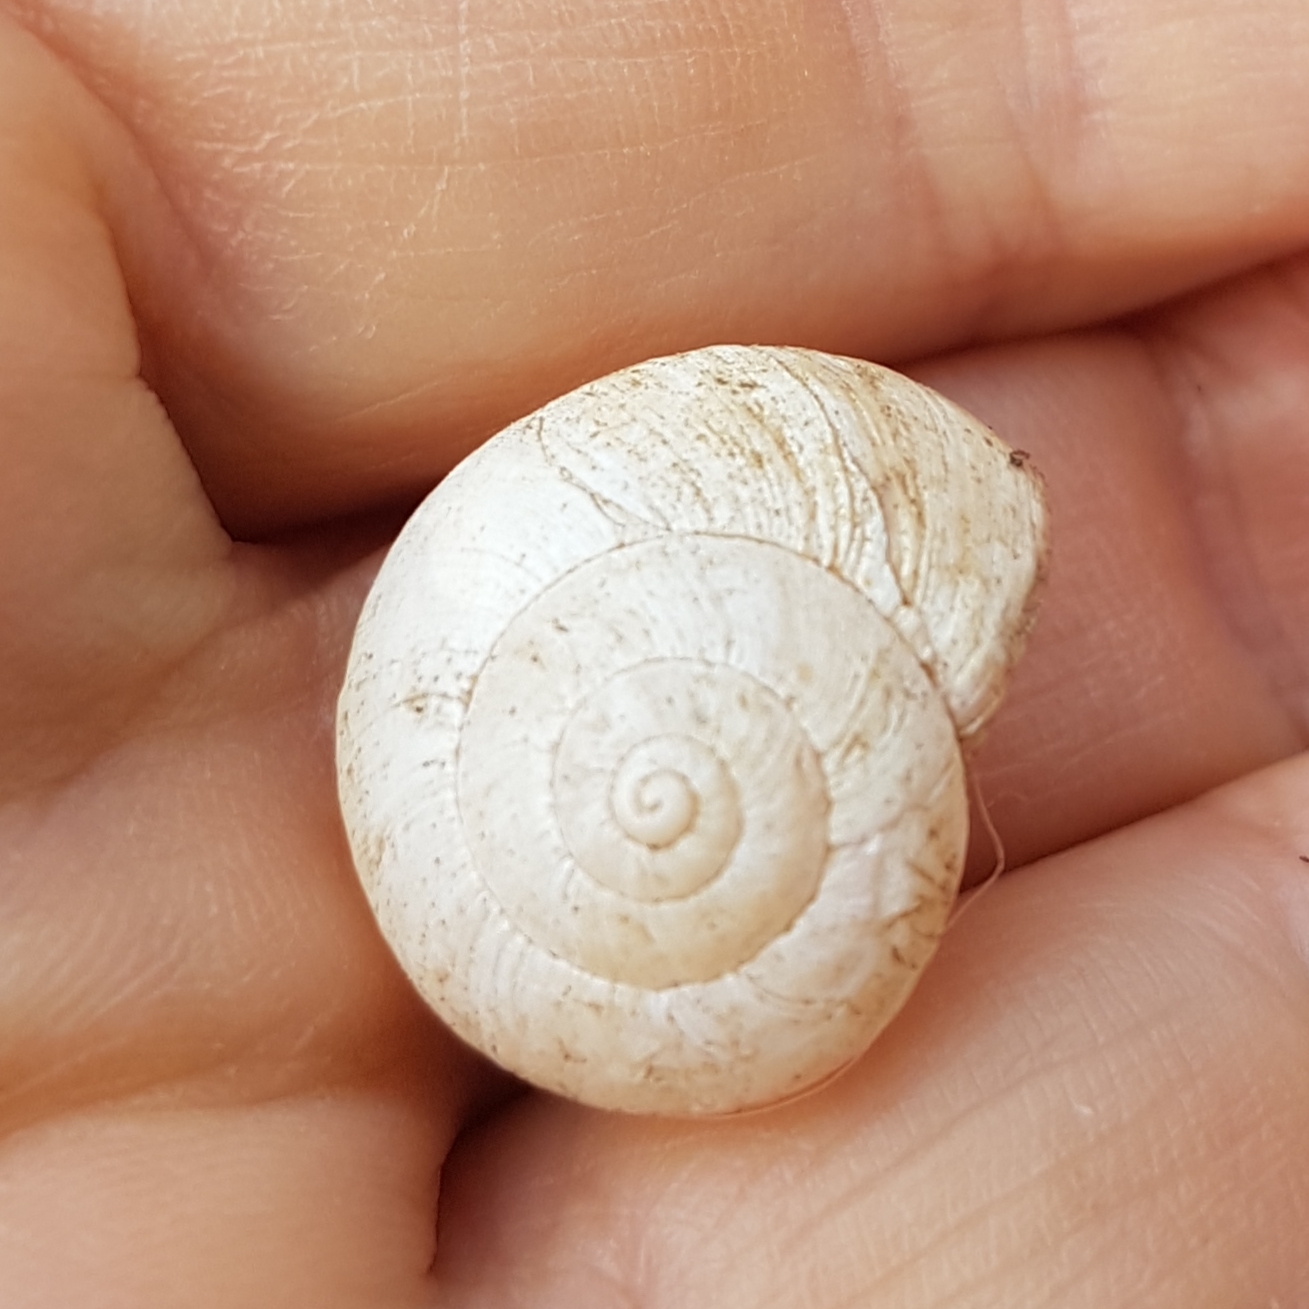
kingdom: Animalia
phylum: Mollusca
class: Gastropoda
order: Stylommatophora
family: Helicidae
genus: Theba
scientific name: Theba pisana
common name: White snail
